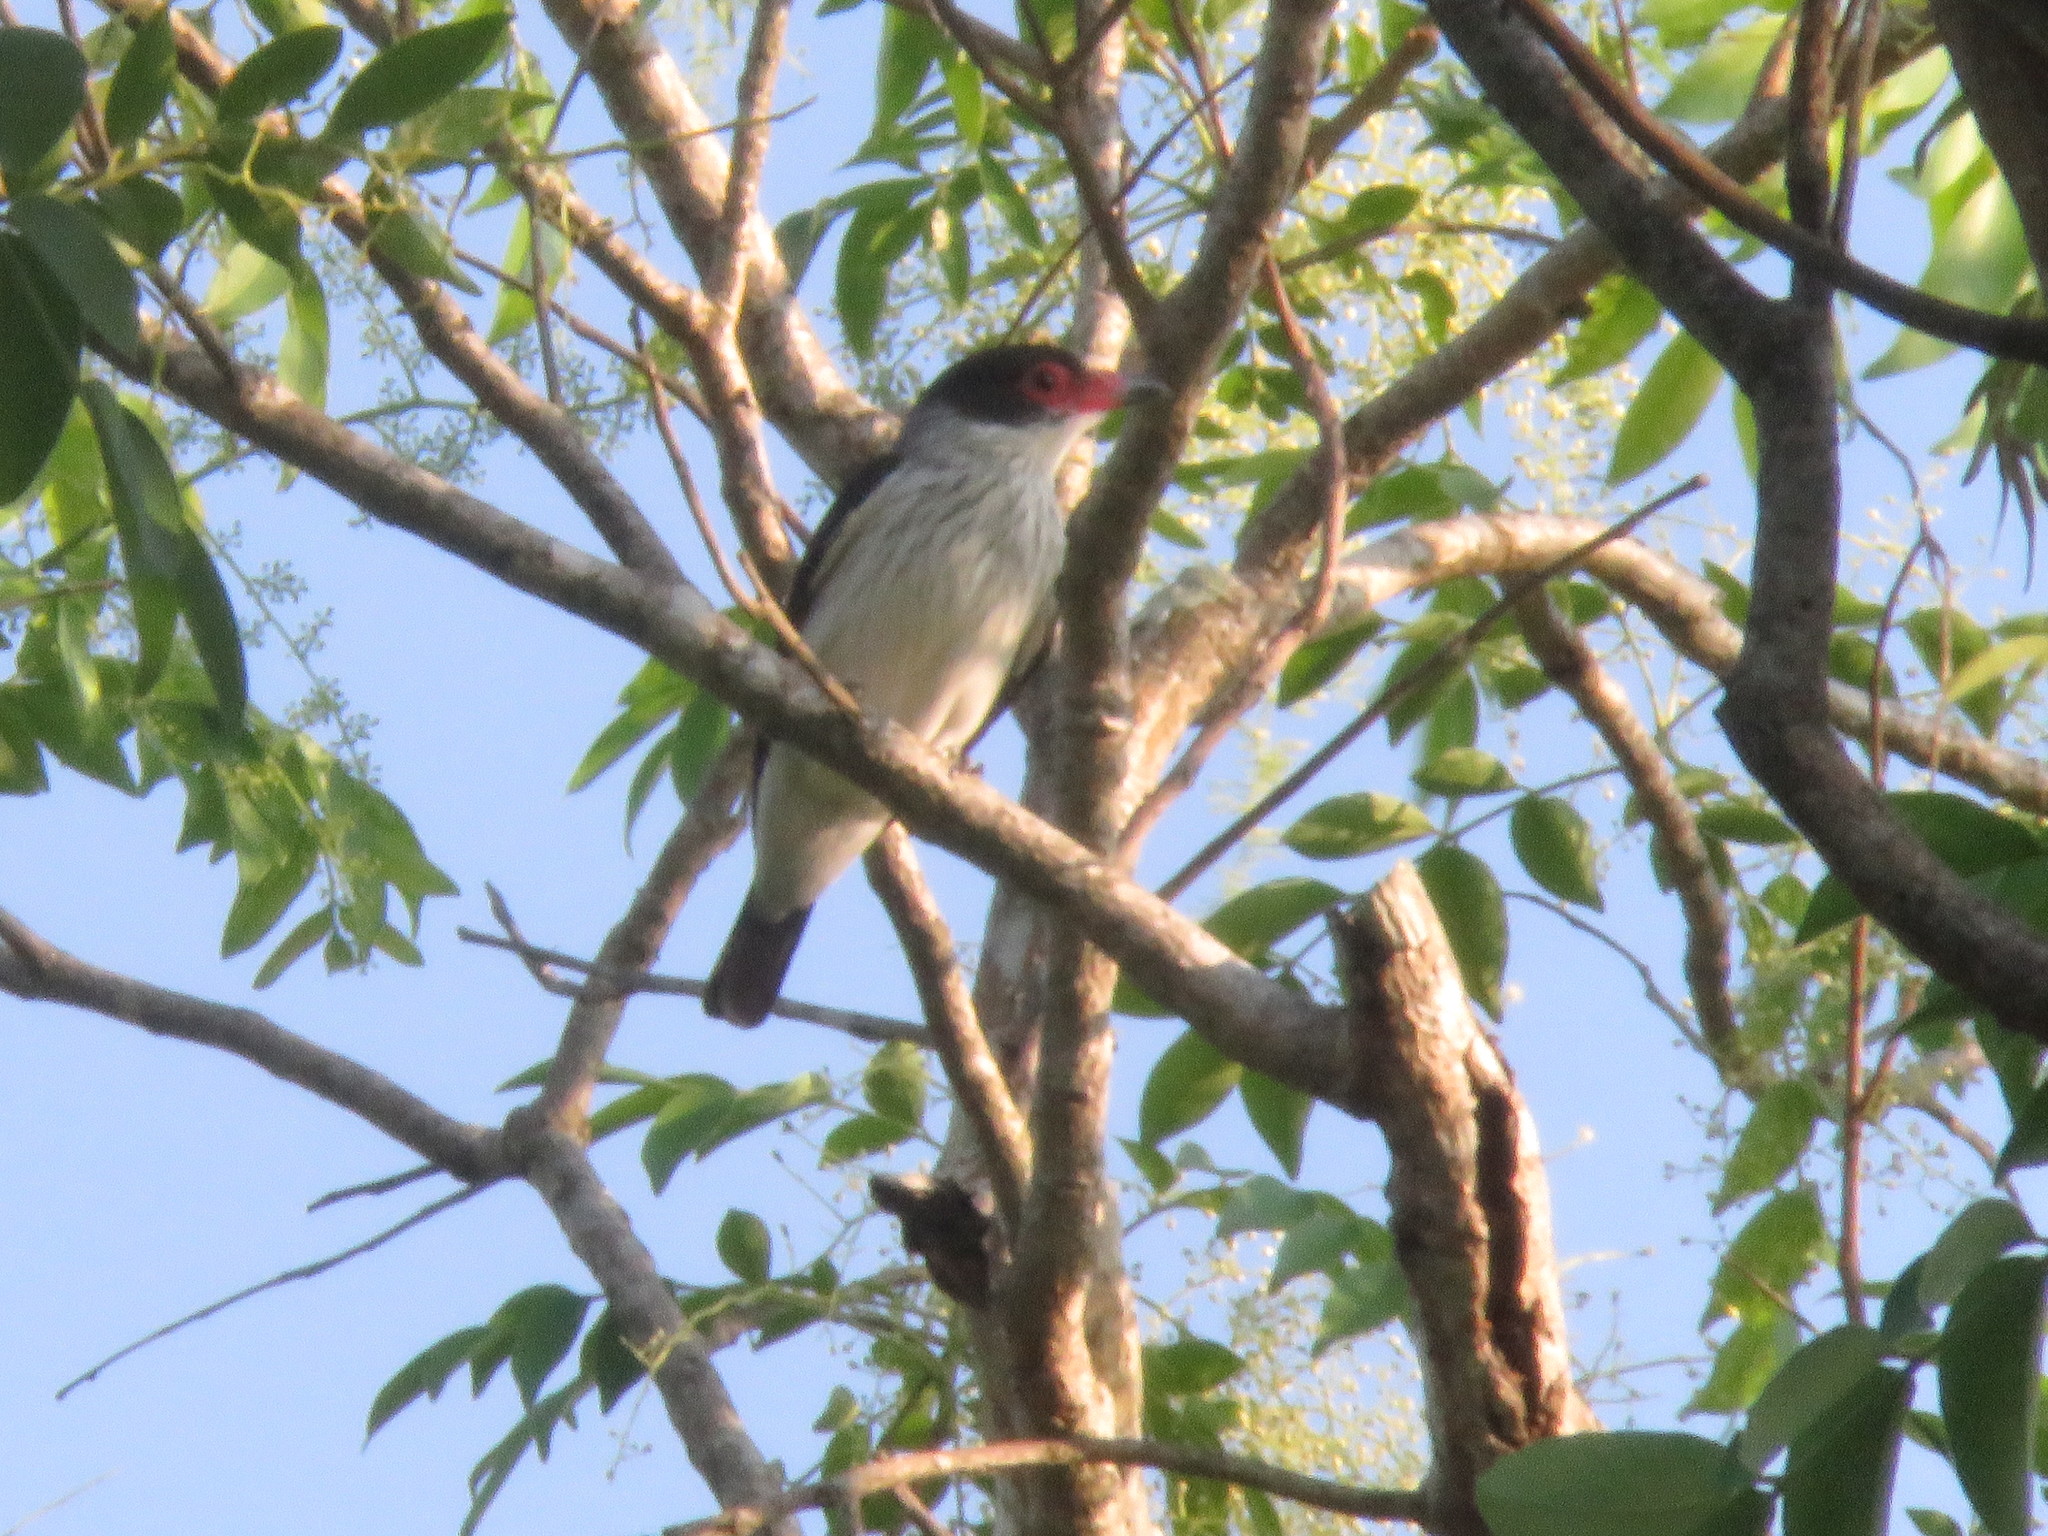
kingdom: Animalia
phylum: Chordata
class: Aves
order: Passeriformes
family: Cotingidae
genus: Tityra
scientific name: Tityra cayana
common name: Black-tailed tityra
